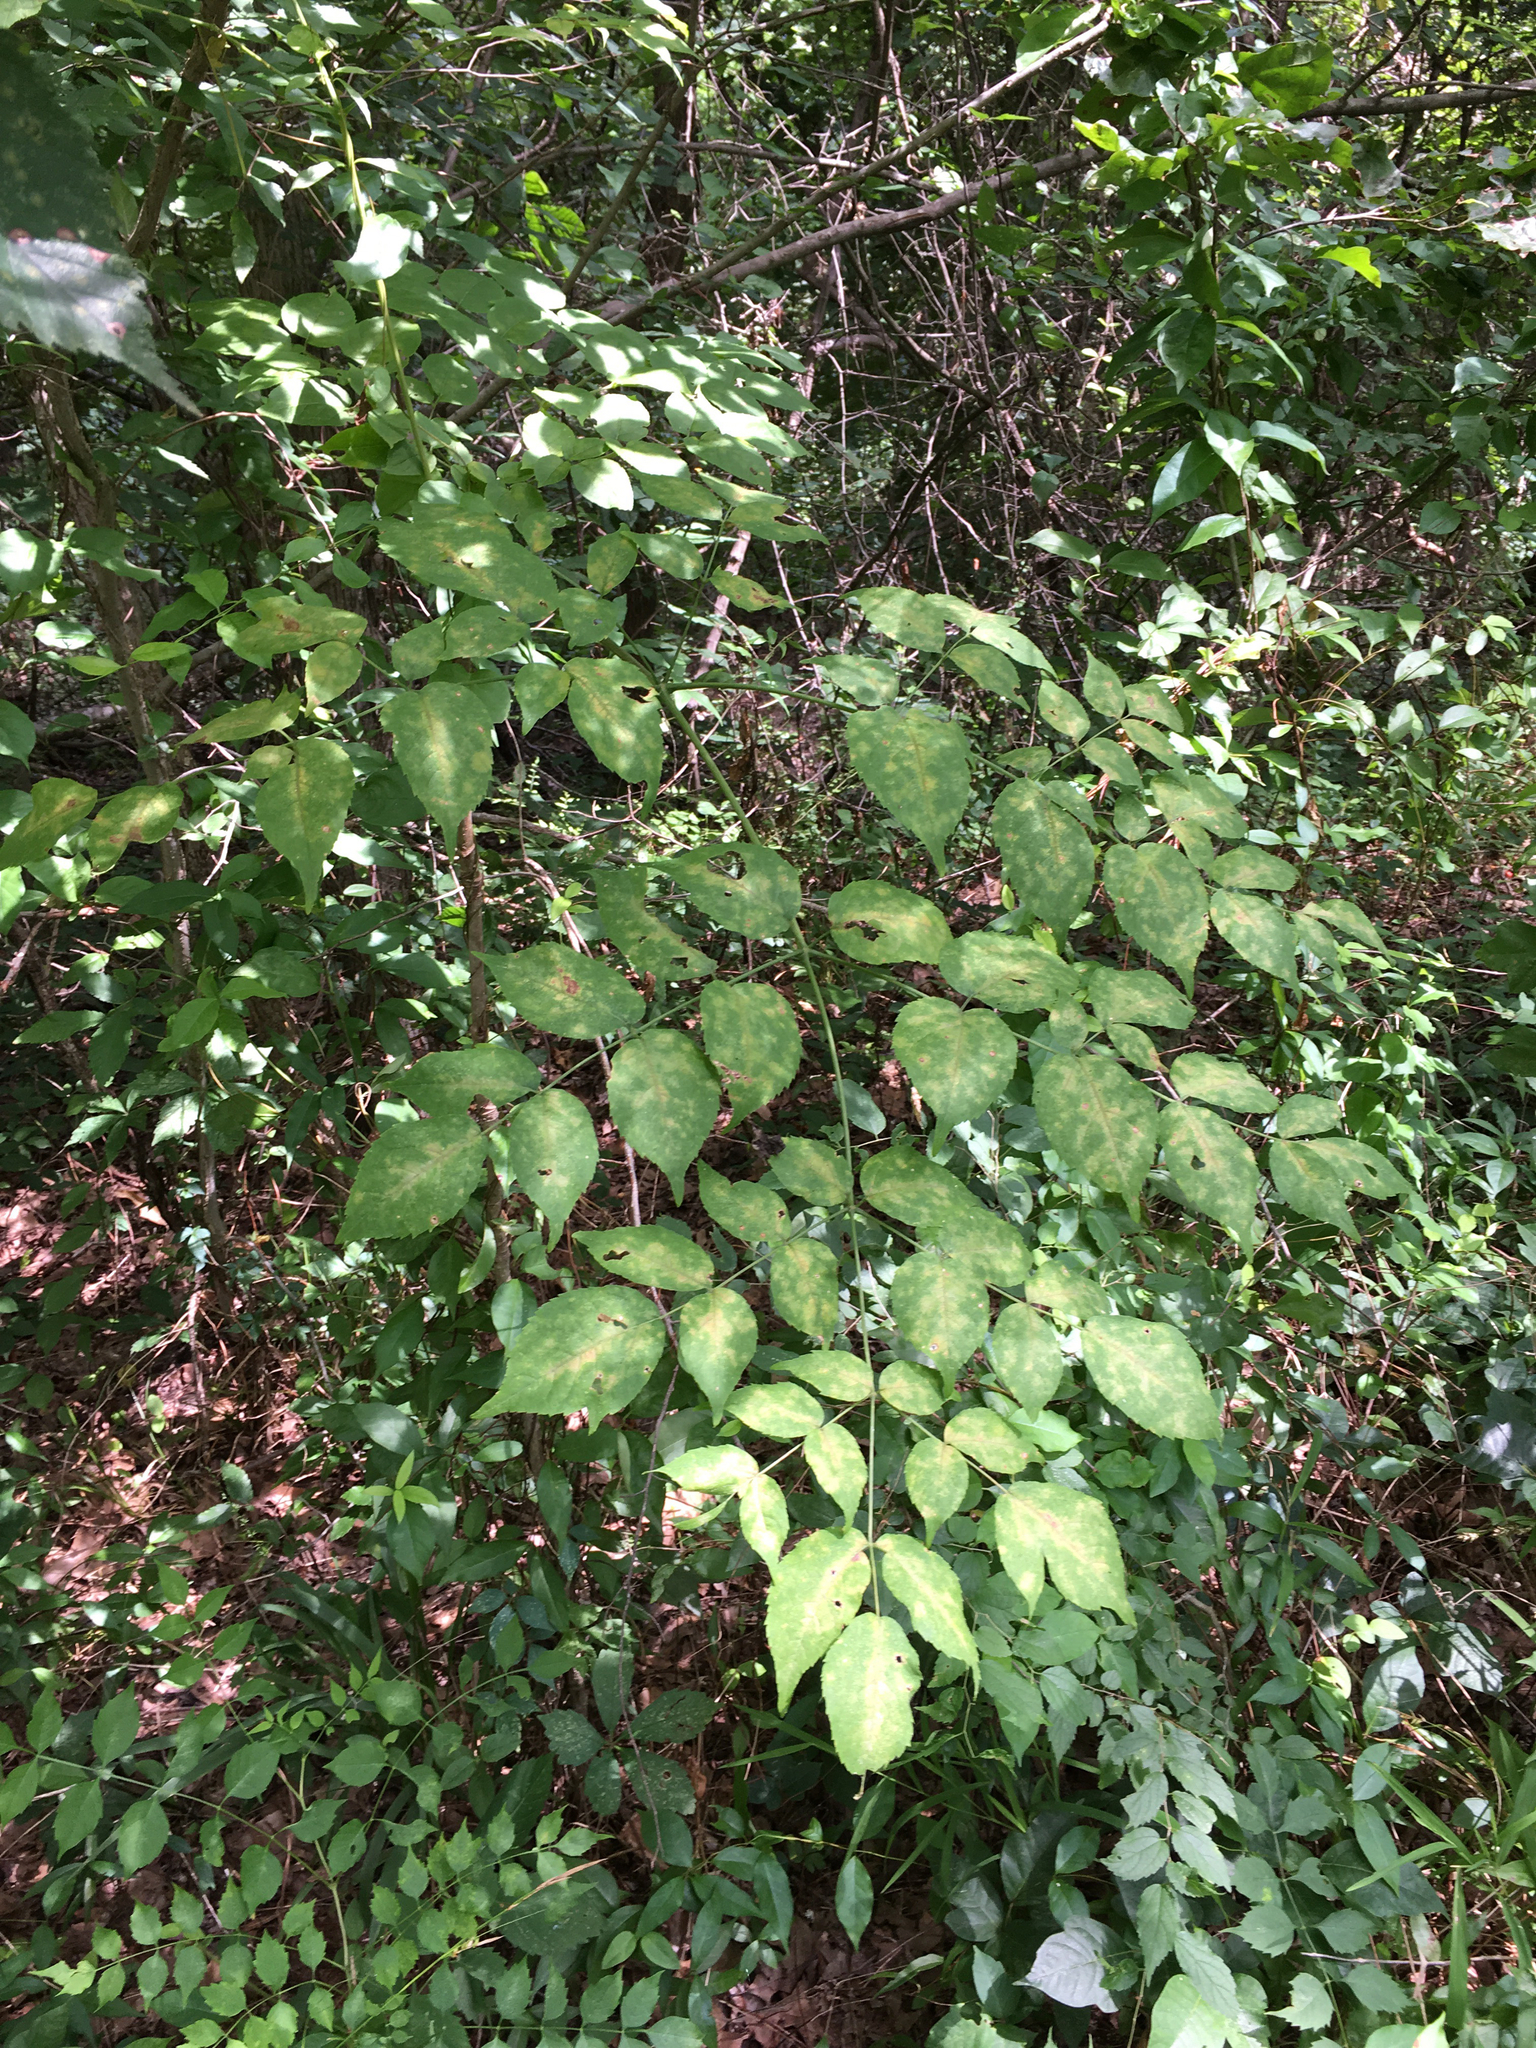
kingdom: Plantae
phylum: Tracheophyta
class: Magnoliopsida
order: Apiales
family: Araliaceae
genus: Aralia
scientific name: Aralia spinosa
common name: Hercules'-club
